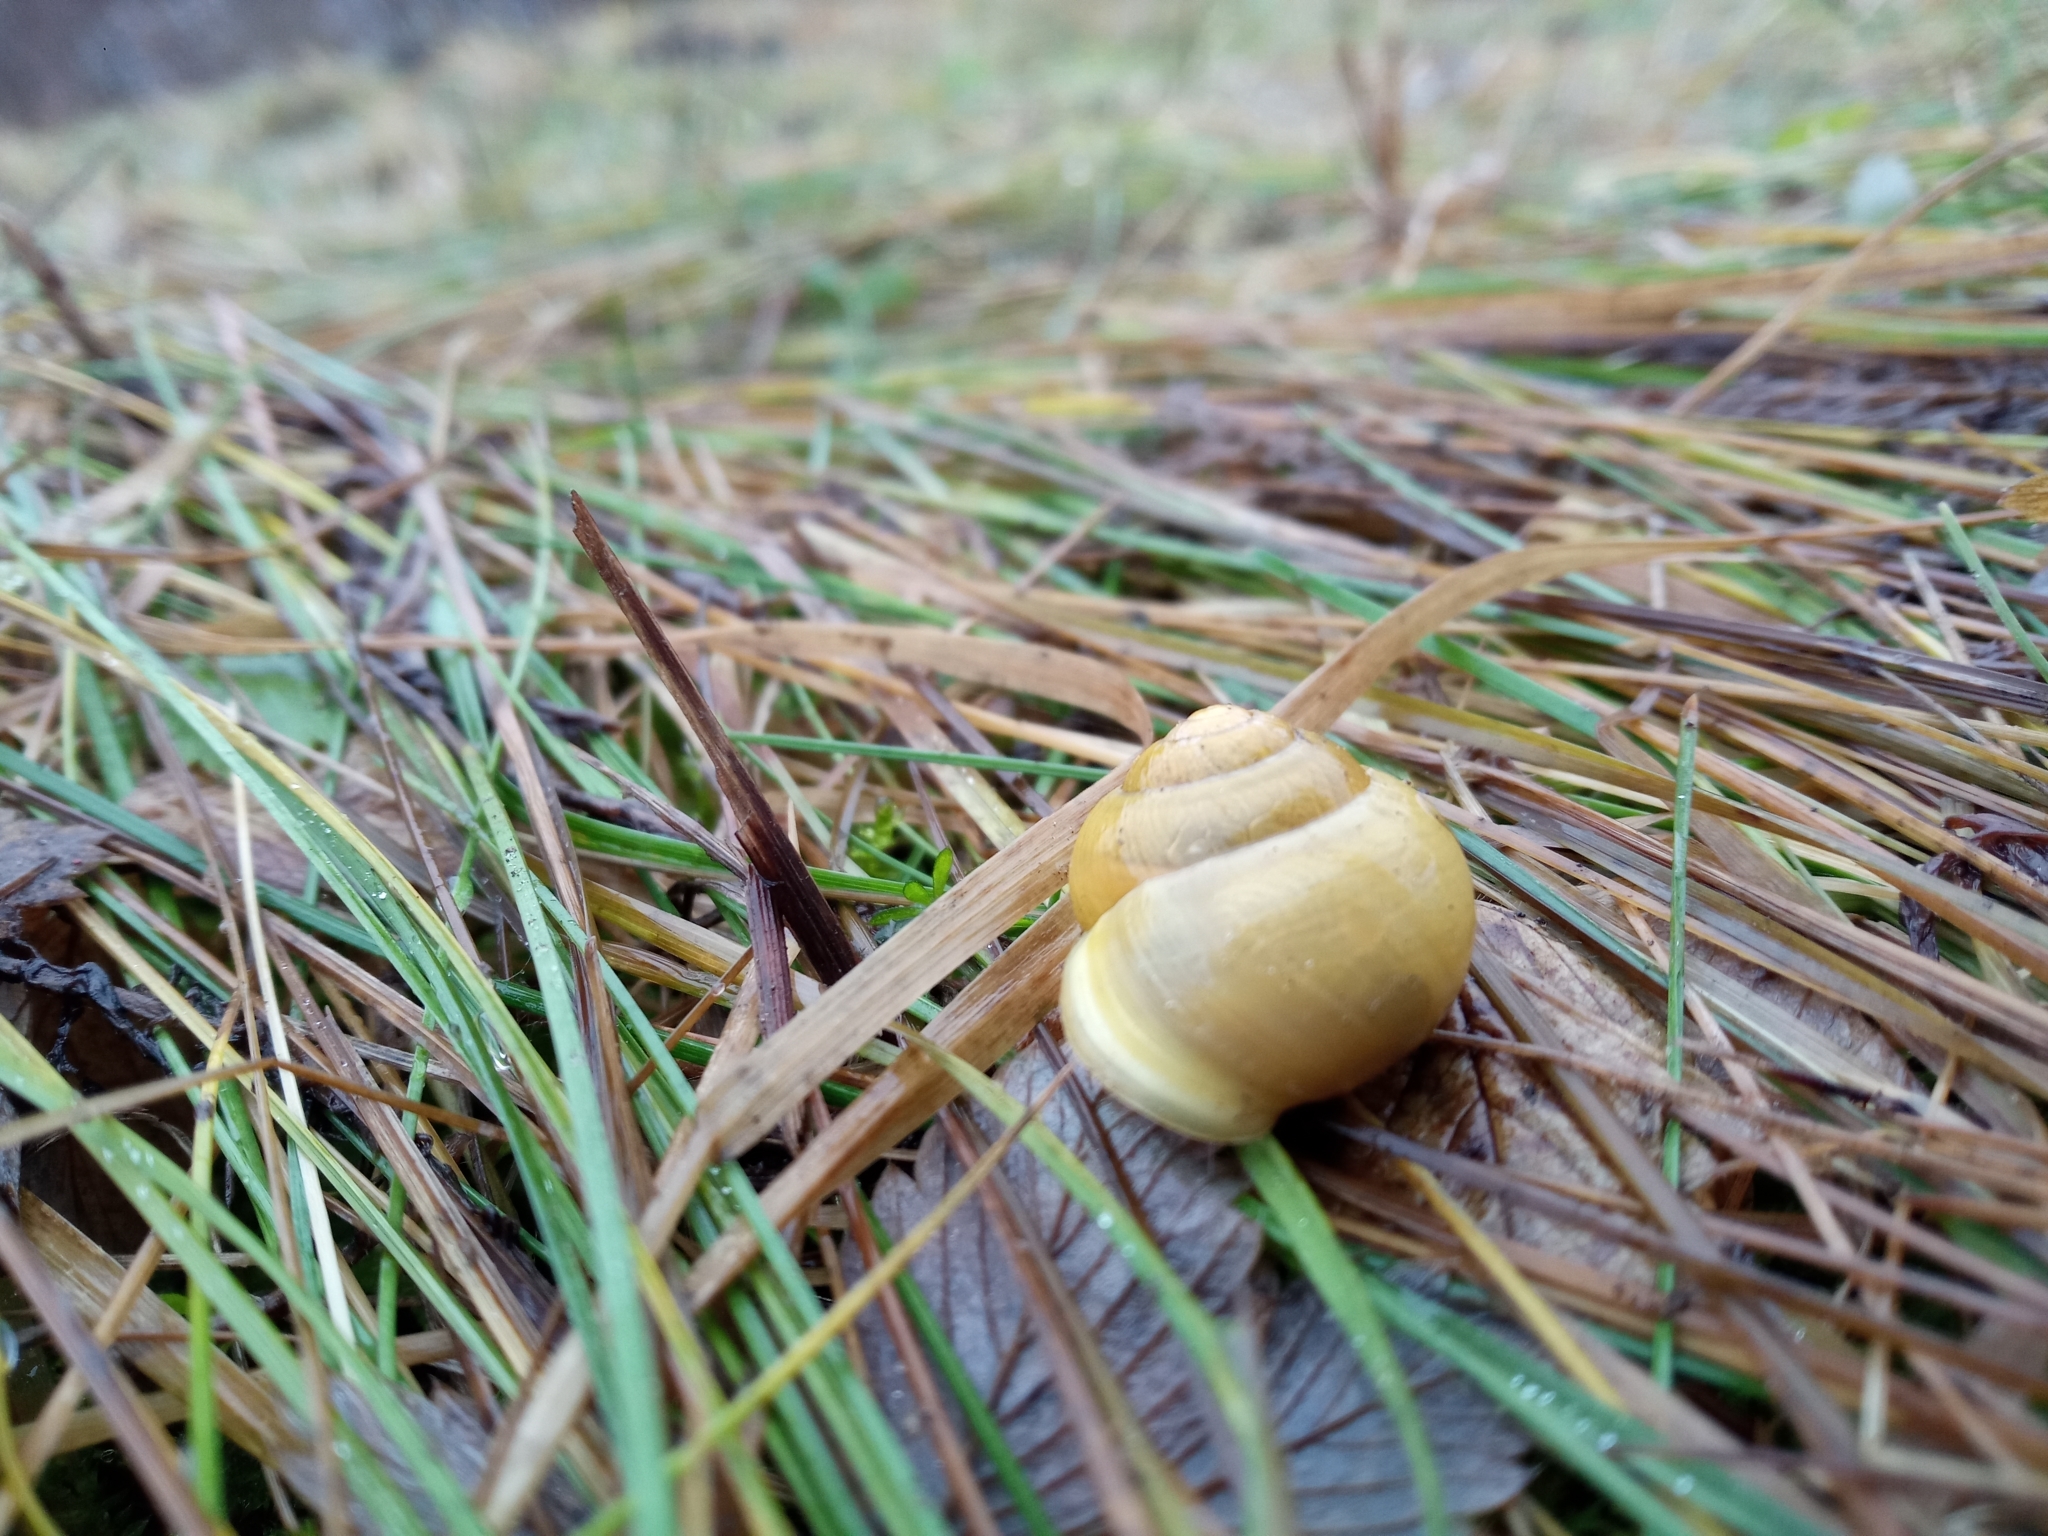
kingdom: Animalia
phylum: Mollusca
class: Gastropoda
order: Stylommatophora
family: Helicidae
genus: Cepaea
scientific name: Cepaea hortensis
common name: White-lip gardensnail
